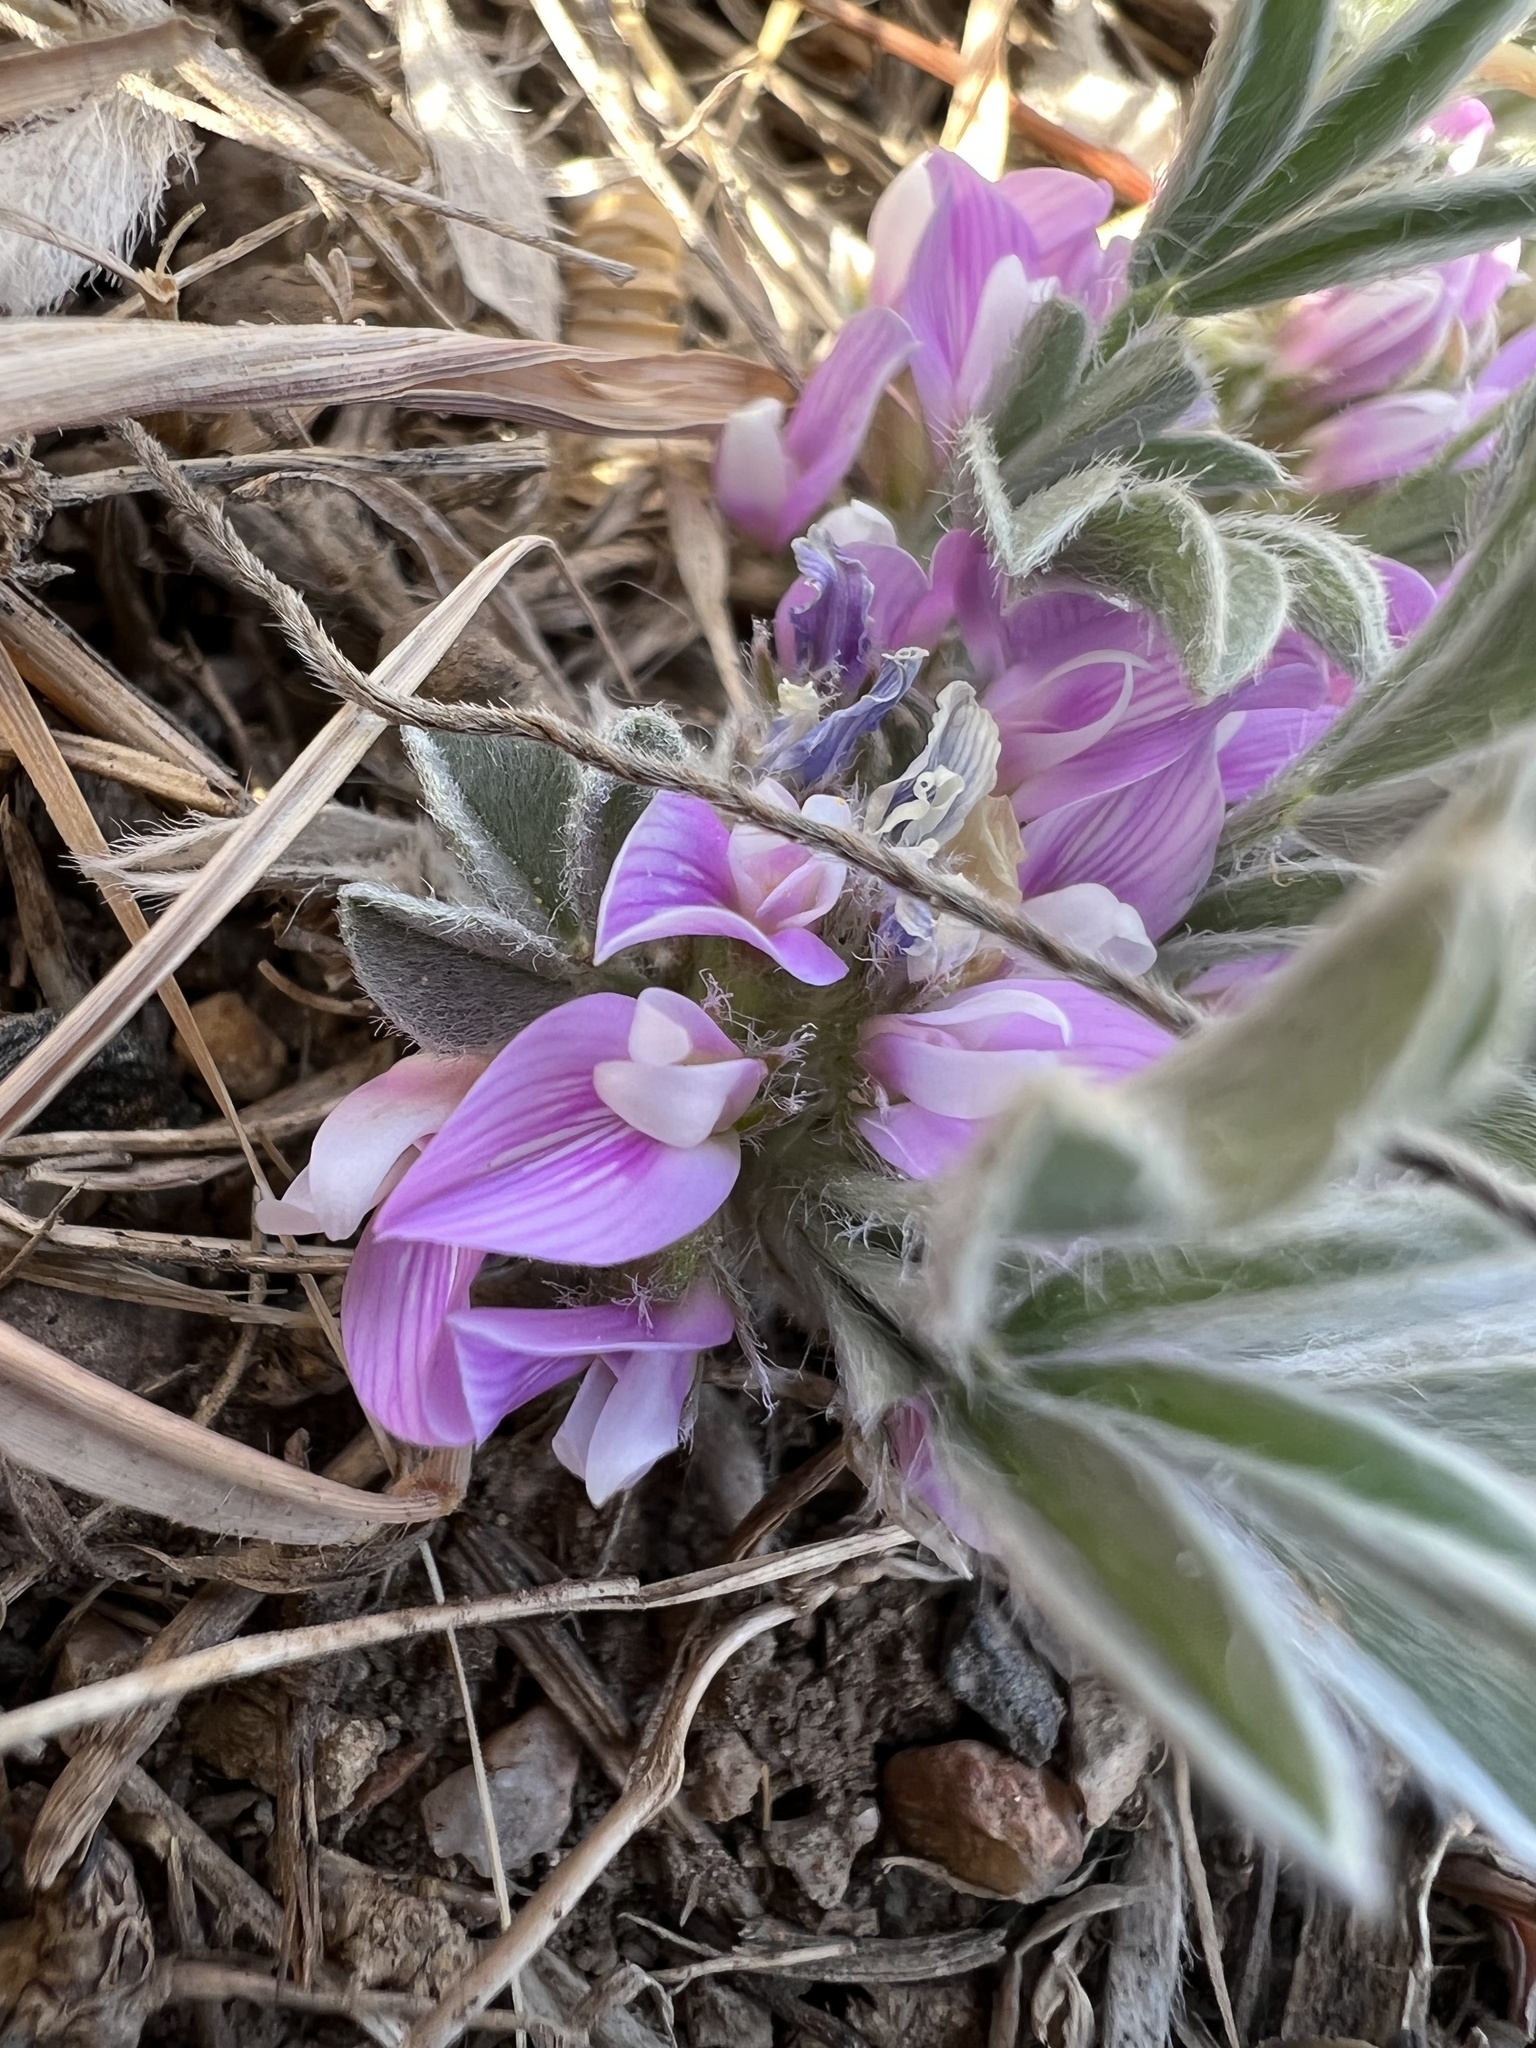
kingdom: Plantae
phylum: Tracheophyta
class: Magnoliopsida
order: Fabales
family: Fabaceae
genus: Astragalus
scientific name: Astragalus tridactylicus
